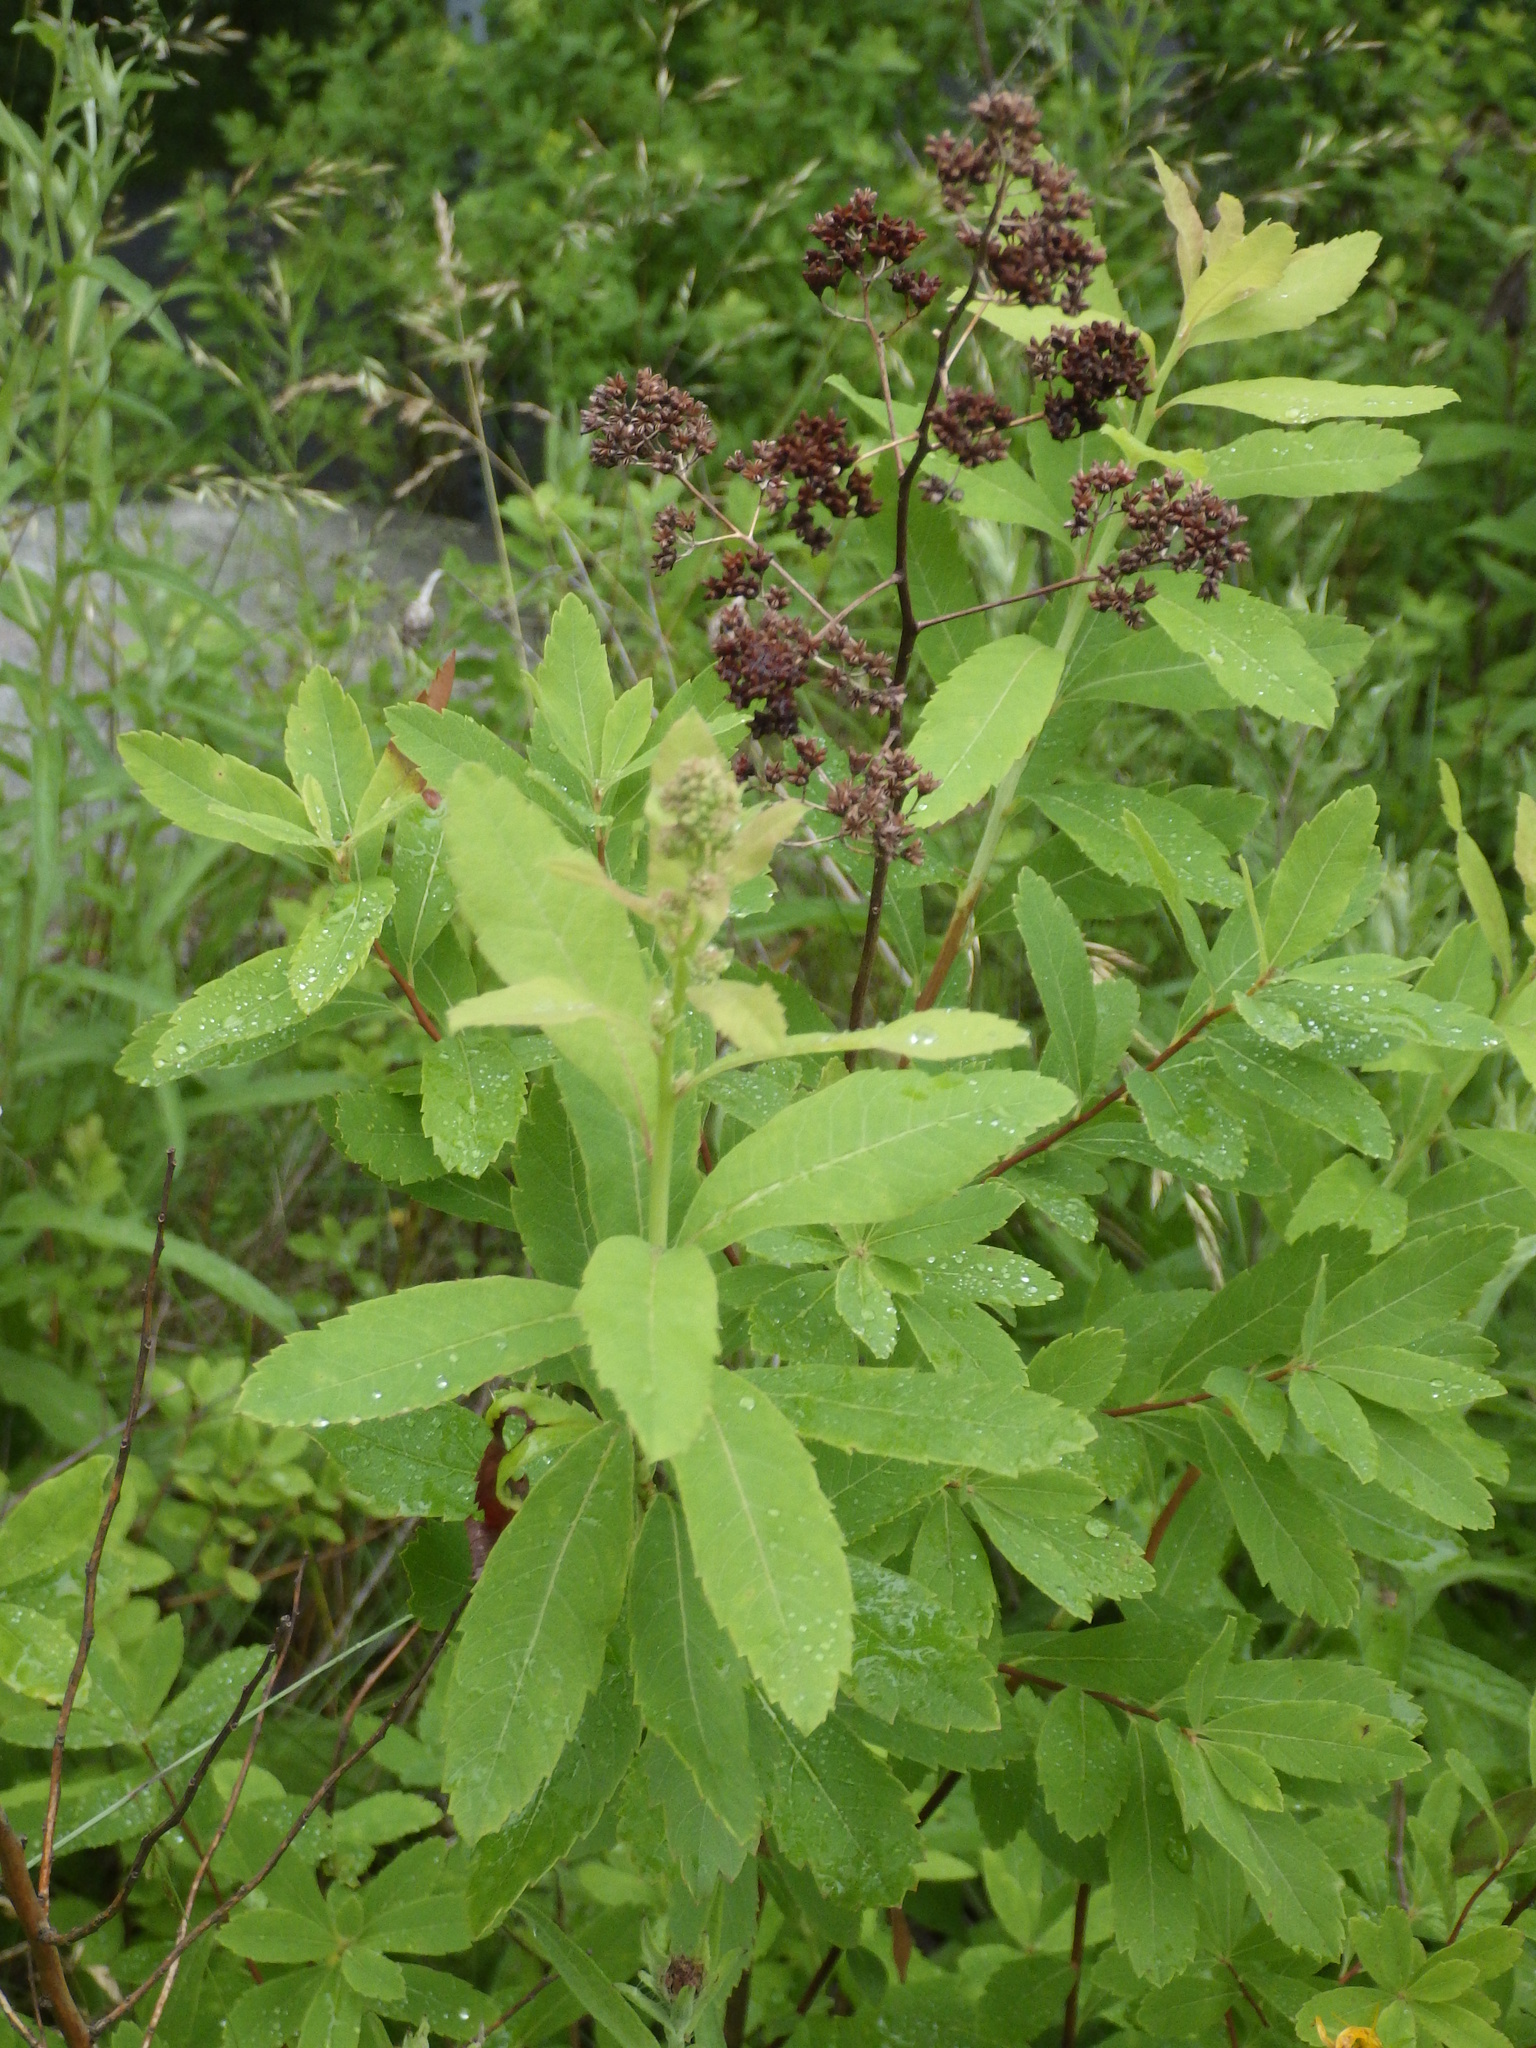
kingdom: Plantae
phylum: Tracheophyta
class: Magnoliopsida
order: Rosales
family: Rosaceae
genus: Spiraea
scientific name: Spiraea alba
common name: Pale bridewort
